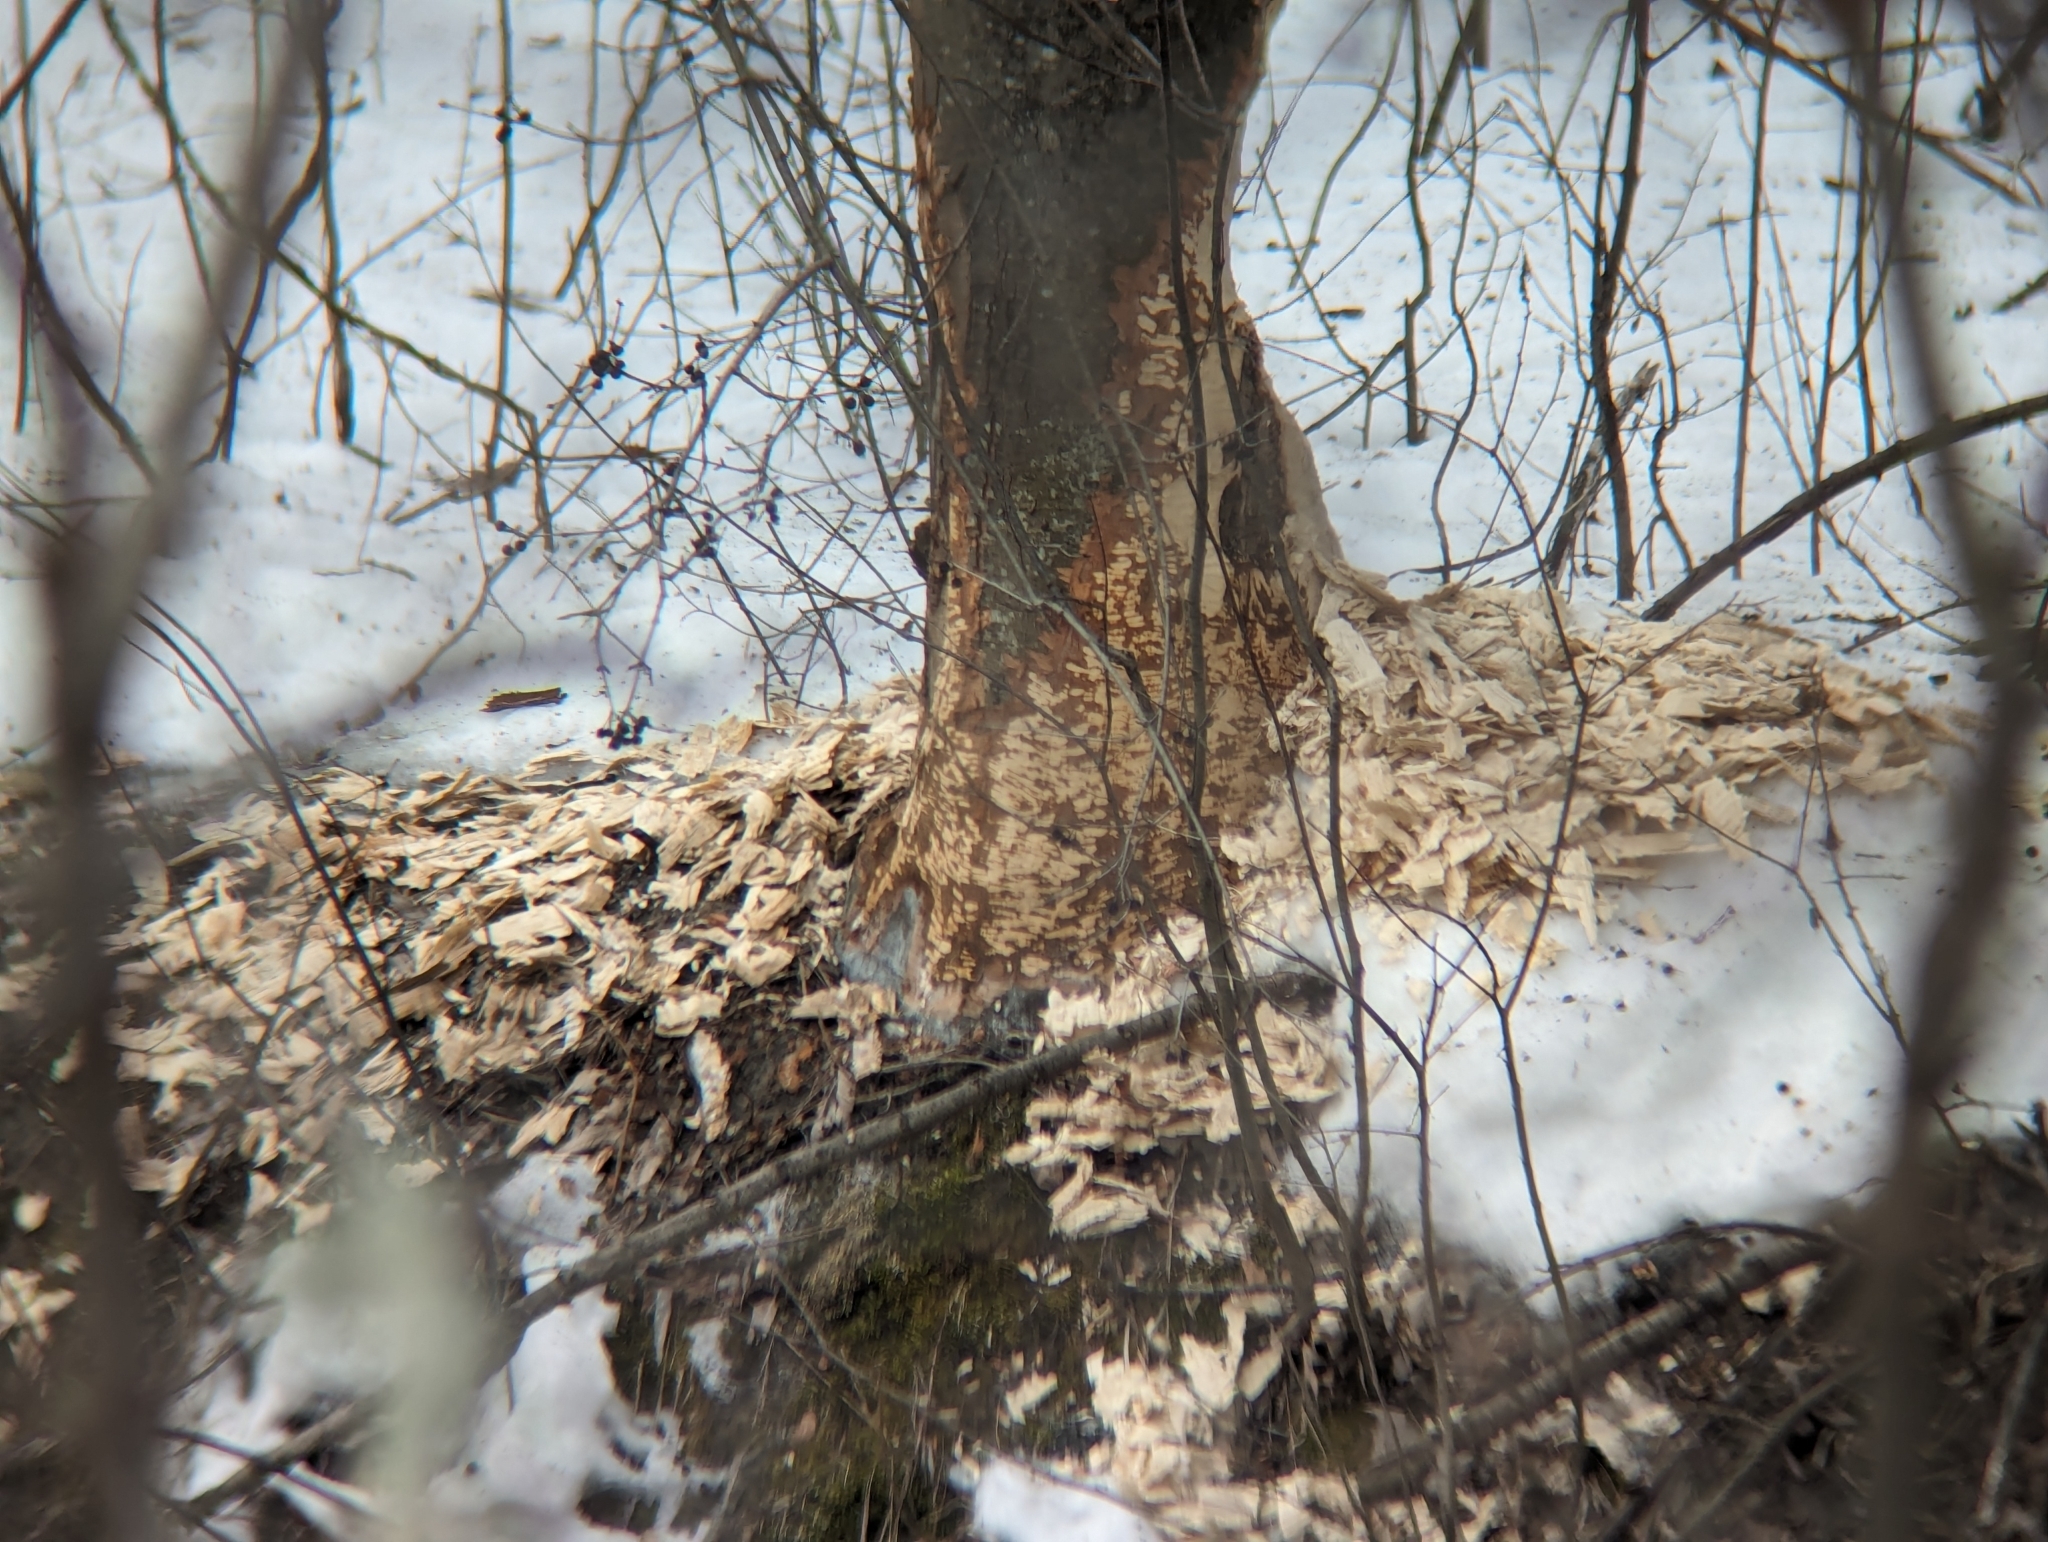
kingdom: Animalia
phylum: Chordata
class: Mammalia
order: Rodentia
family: Castoridae
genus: Castor
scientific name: Castor canadensis
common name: American beaver
